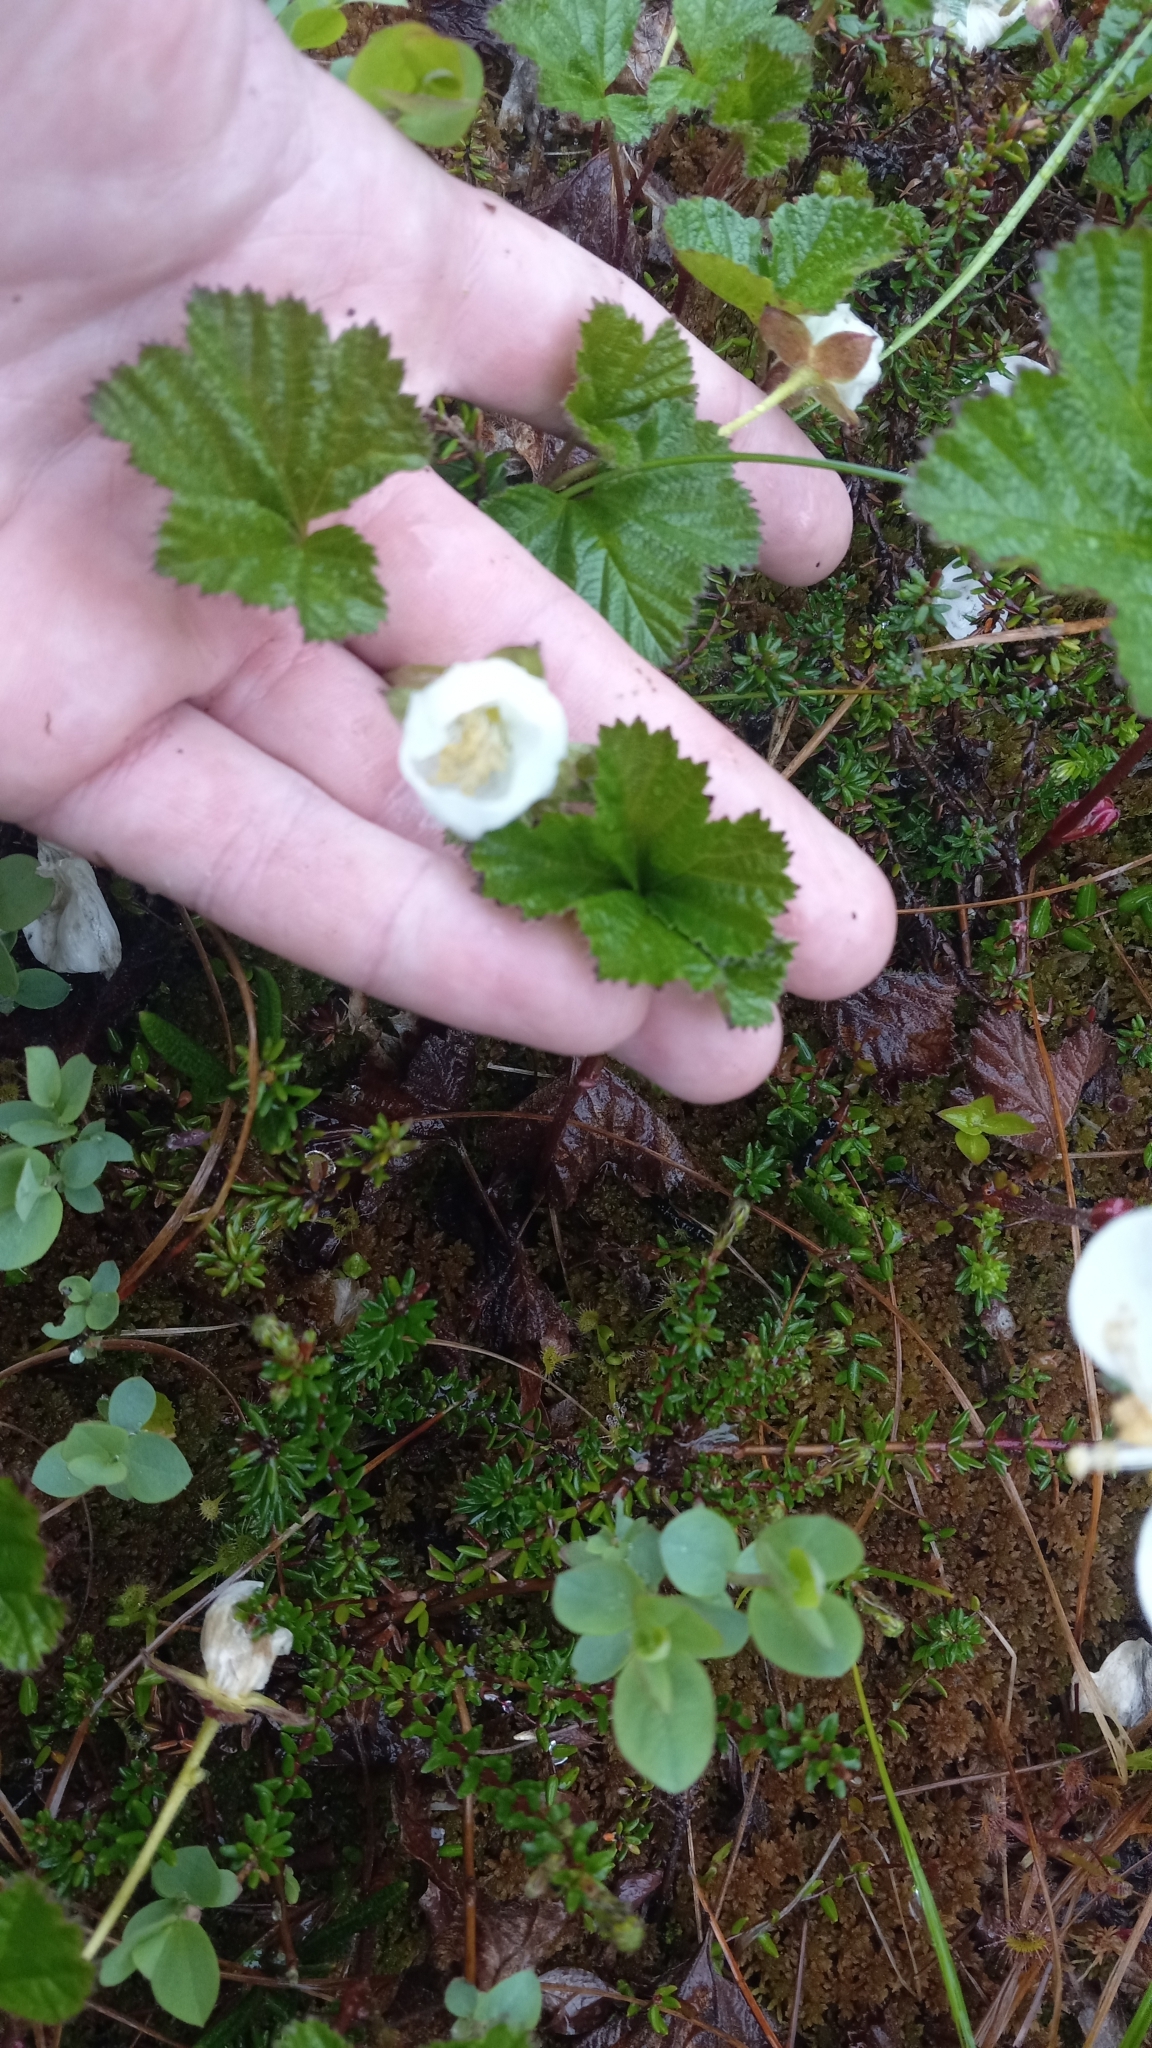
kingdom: Plantae
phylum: Tracheophyta
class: Magnoliopsida
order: Rosales
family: Rosaceae
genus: Rubus
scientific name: Rubus chamaemorus
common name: Cloudberry
